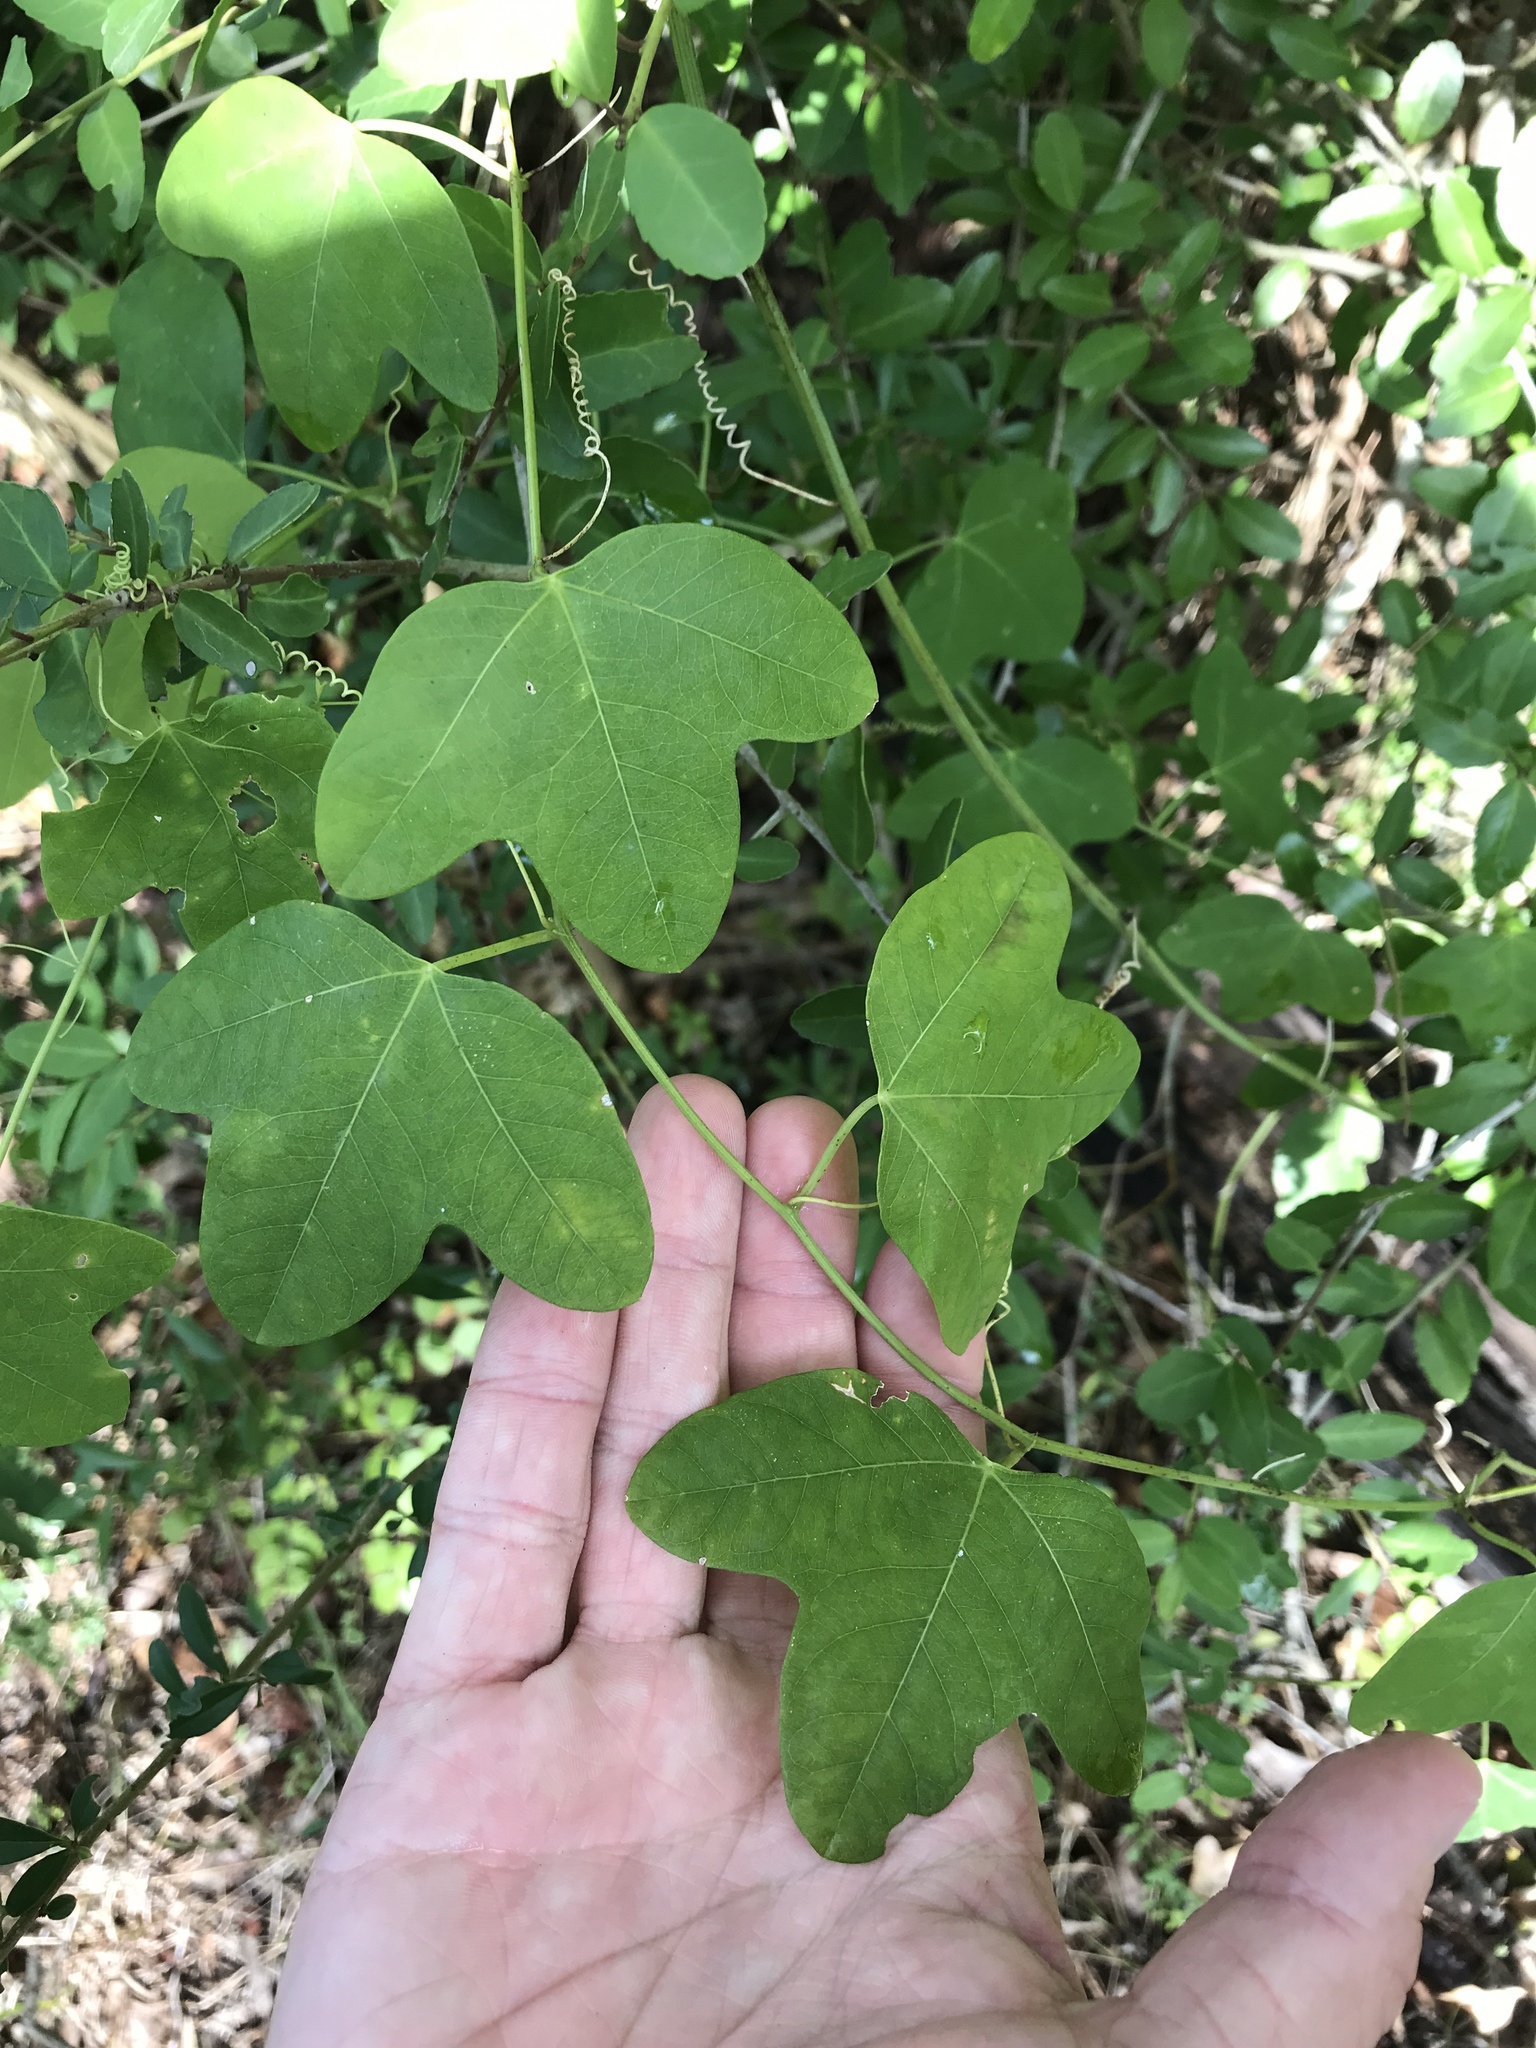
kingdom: Plantae
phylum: Tracheophyta
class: Magnoliopsida
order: Malpighiales
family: Passifloraceae
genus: Passiflora
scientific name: Passiflora lutea
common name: Yellow passionflower
